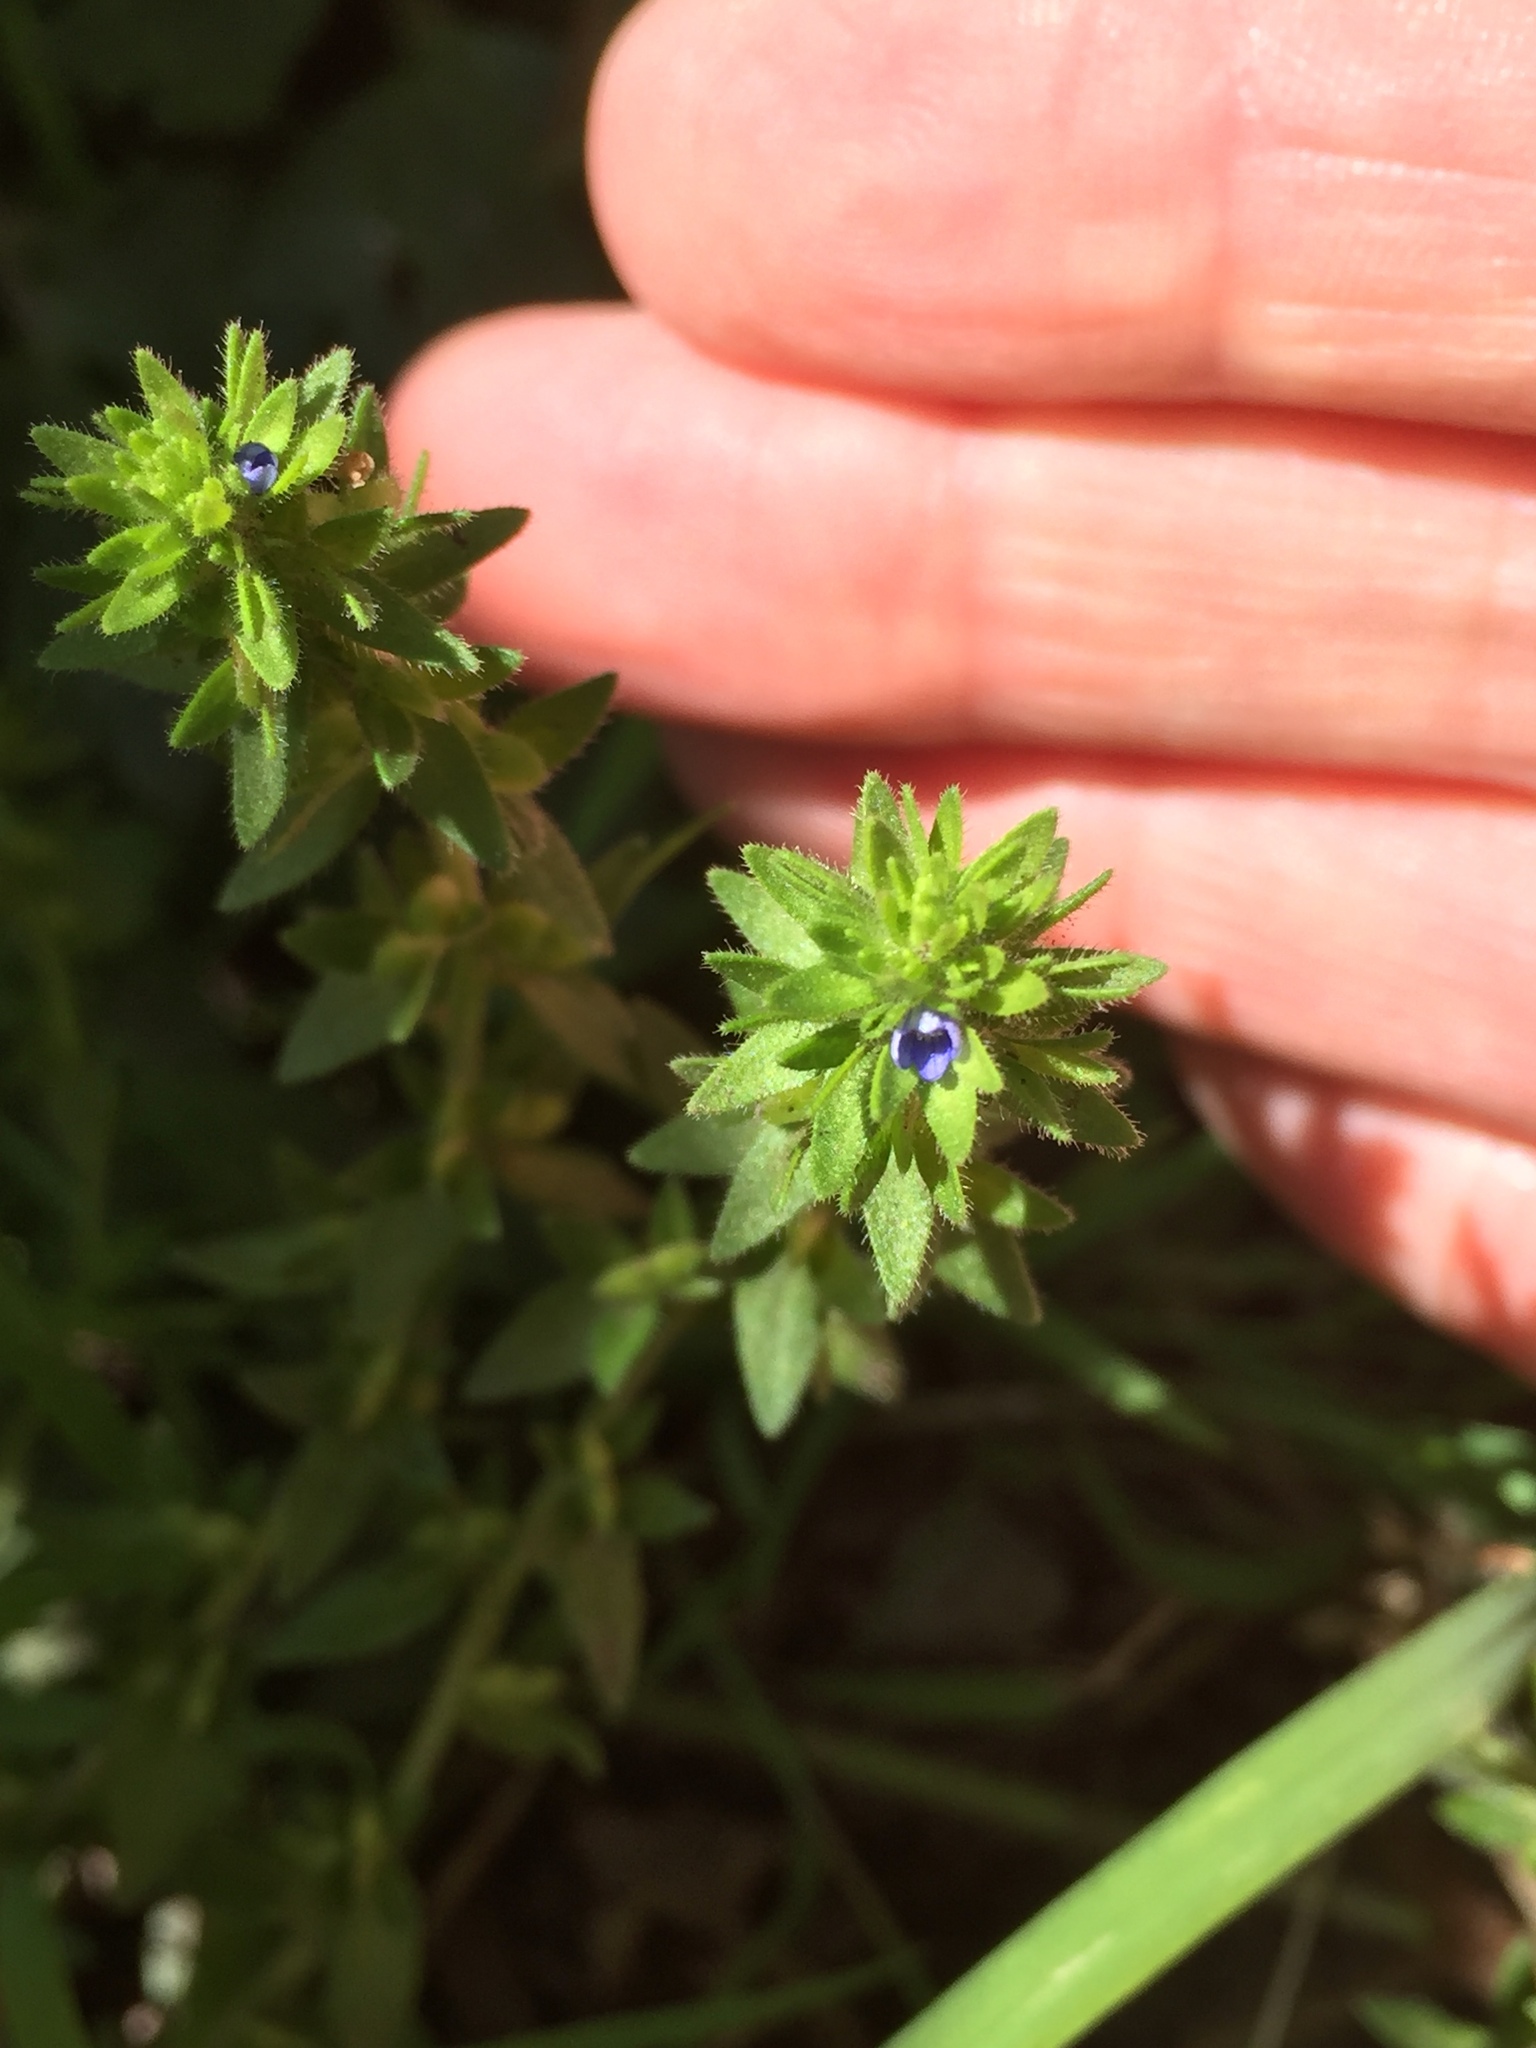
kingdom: Plantae
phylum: Tracheophyta
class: Magnoliopsida
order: Lamiales
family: Plantaginaceae
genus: Veronica
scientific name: Veronica arvensis
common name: Corn speedwell
